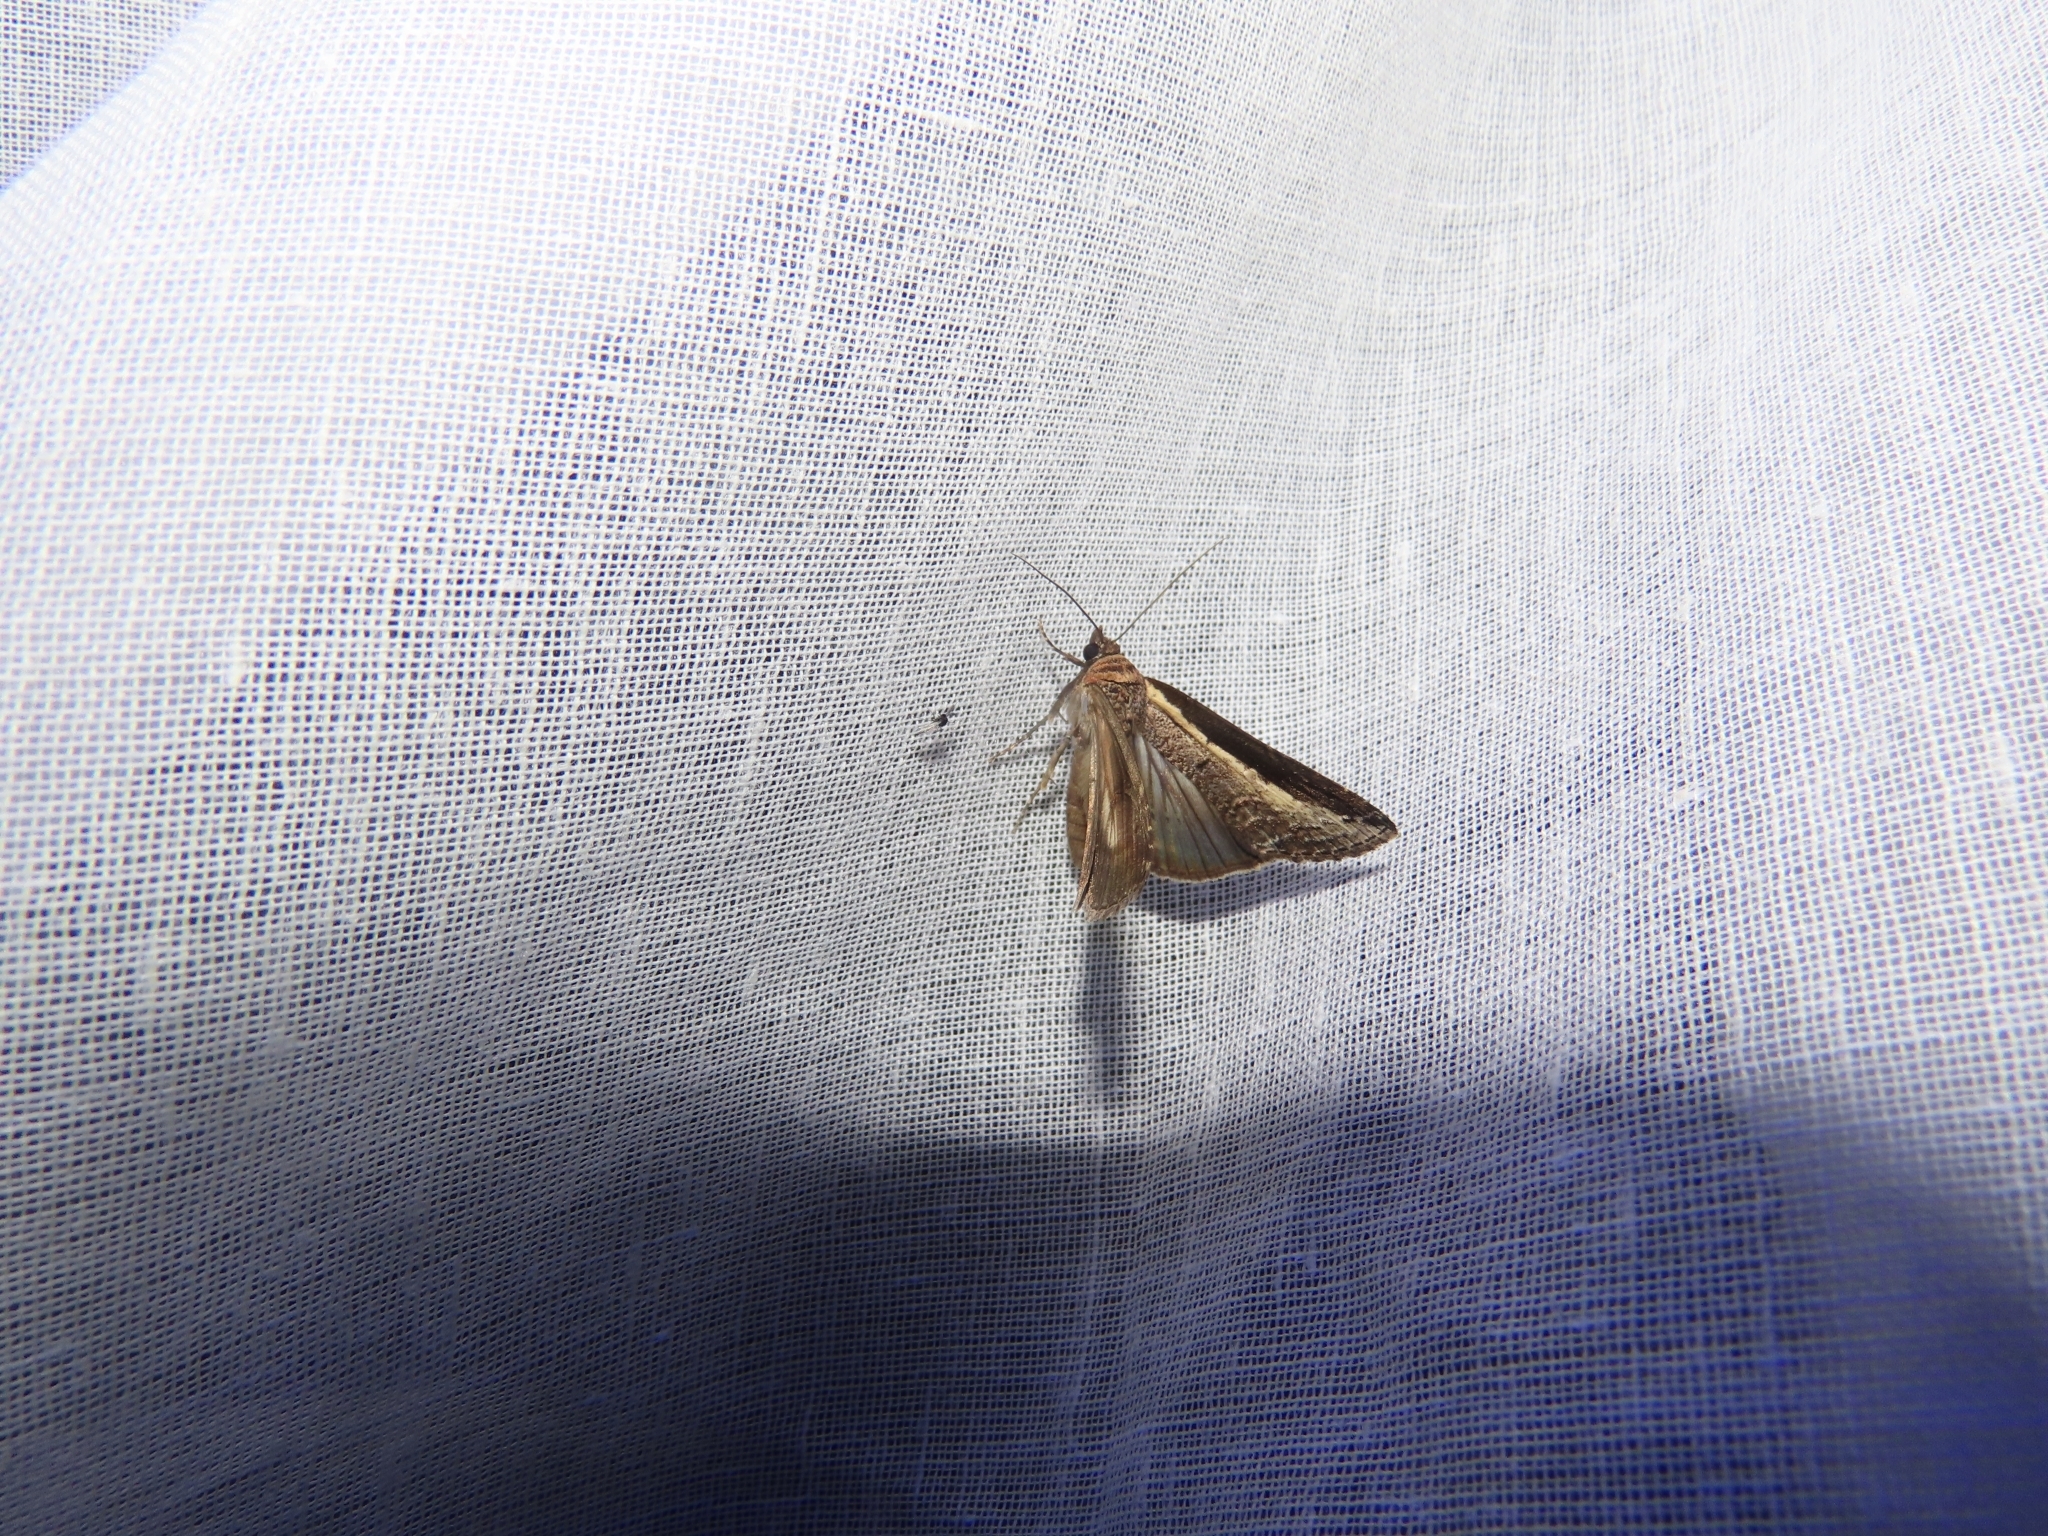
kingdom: Animalia
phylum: Arthropoda
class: Insecta
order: Lepidoptera
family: Euteliidae
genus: Lophoptera
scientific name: Lophoptera squammigera
